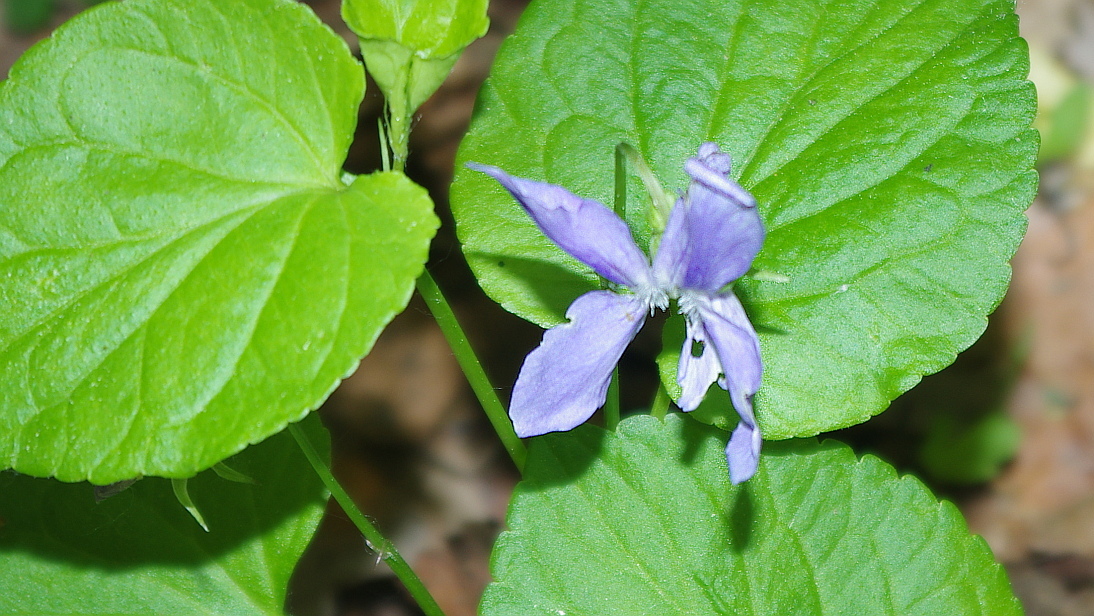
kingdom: Plantae
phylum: Tracheophyta
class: Magnoliopsida
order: Malpighiales
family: Violaceae
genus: Viola
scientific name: Viola riviniana
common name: Common dog-violet
